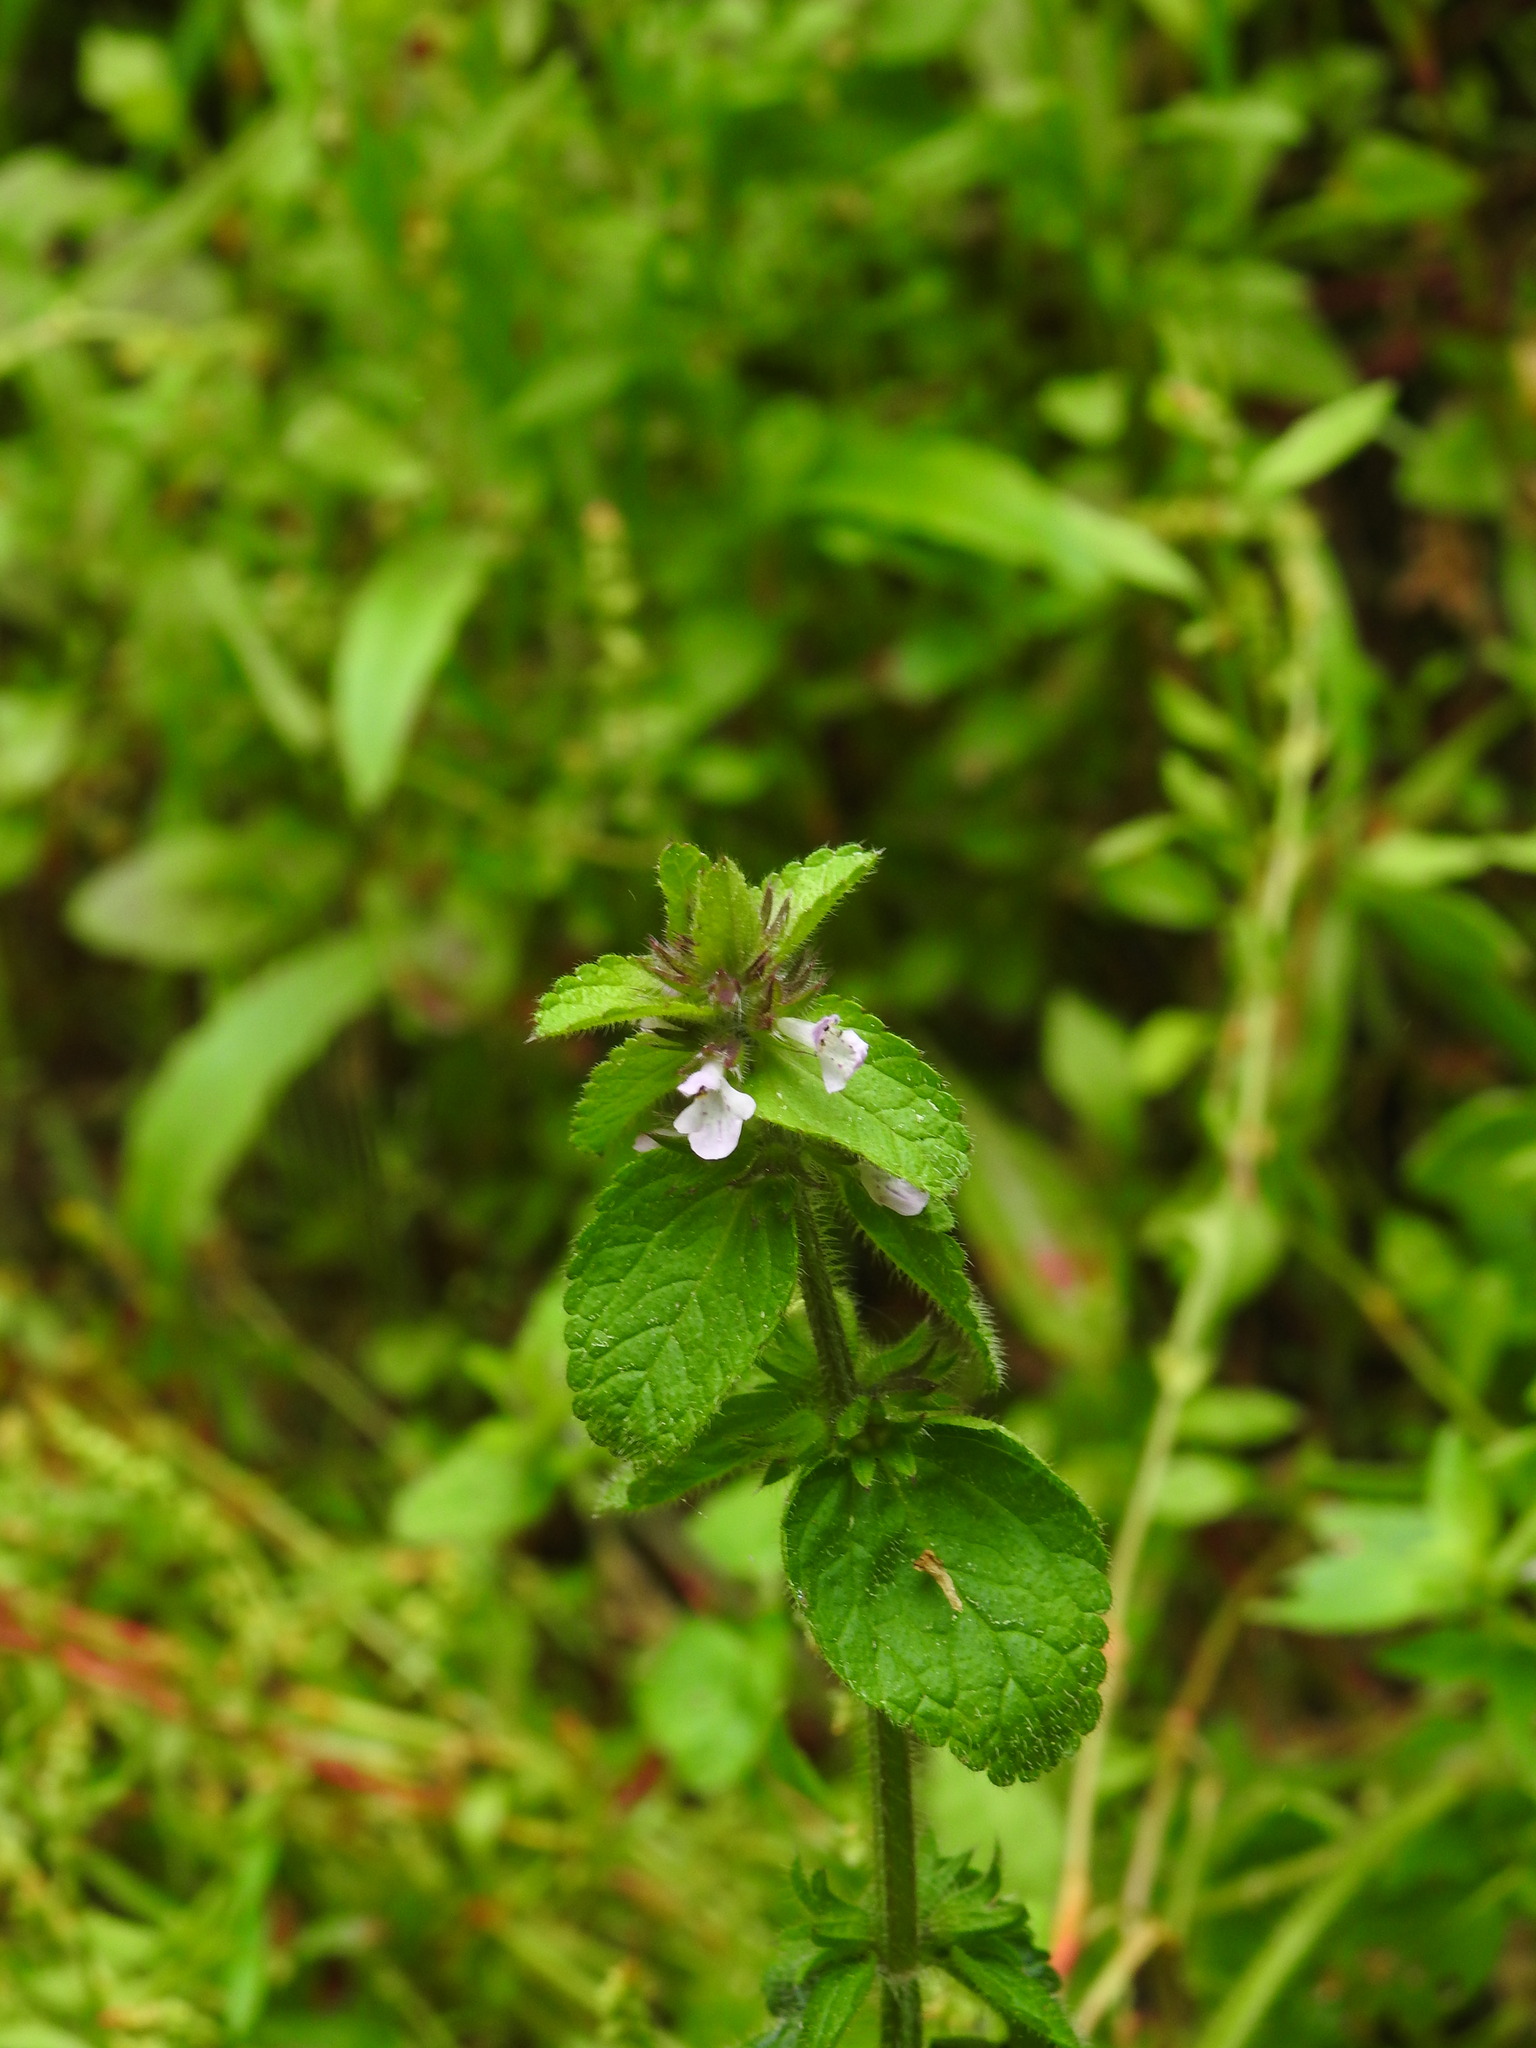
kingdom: Plantae
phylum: Tracheophyta
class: Magnoliopsida
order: Lamiales
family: Lamiaceae
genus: Stachys
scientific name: Stachys arvensis
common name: Field woundwort
